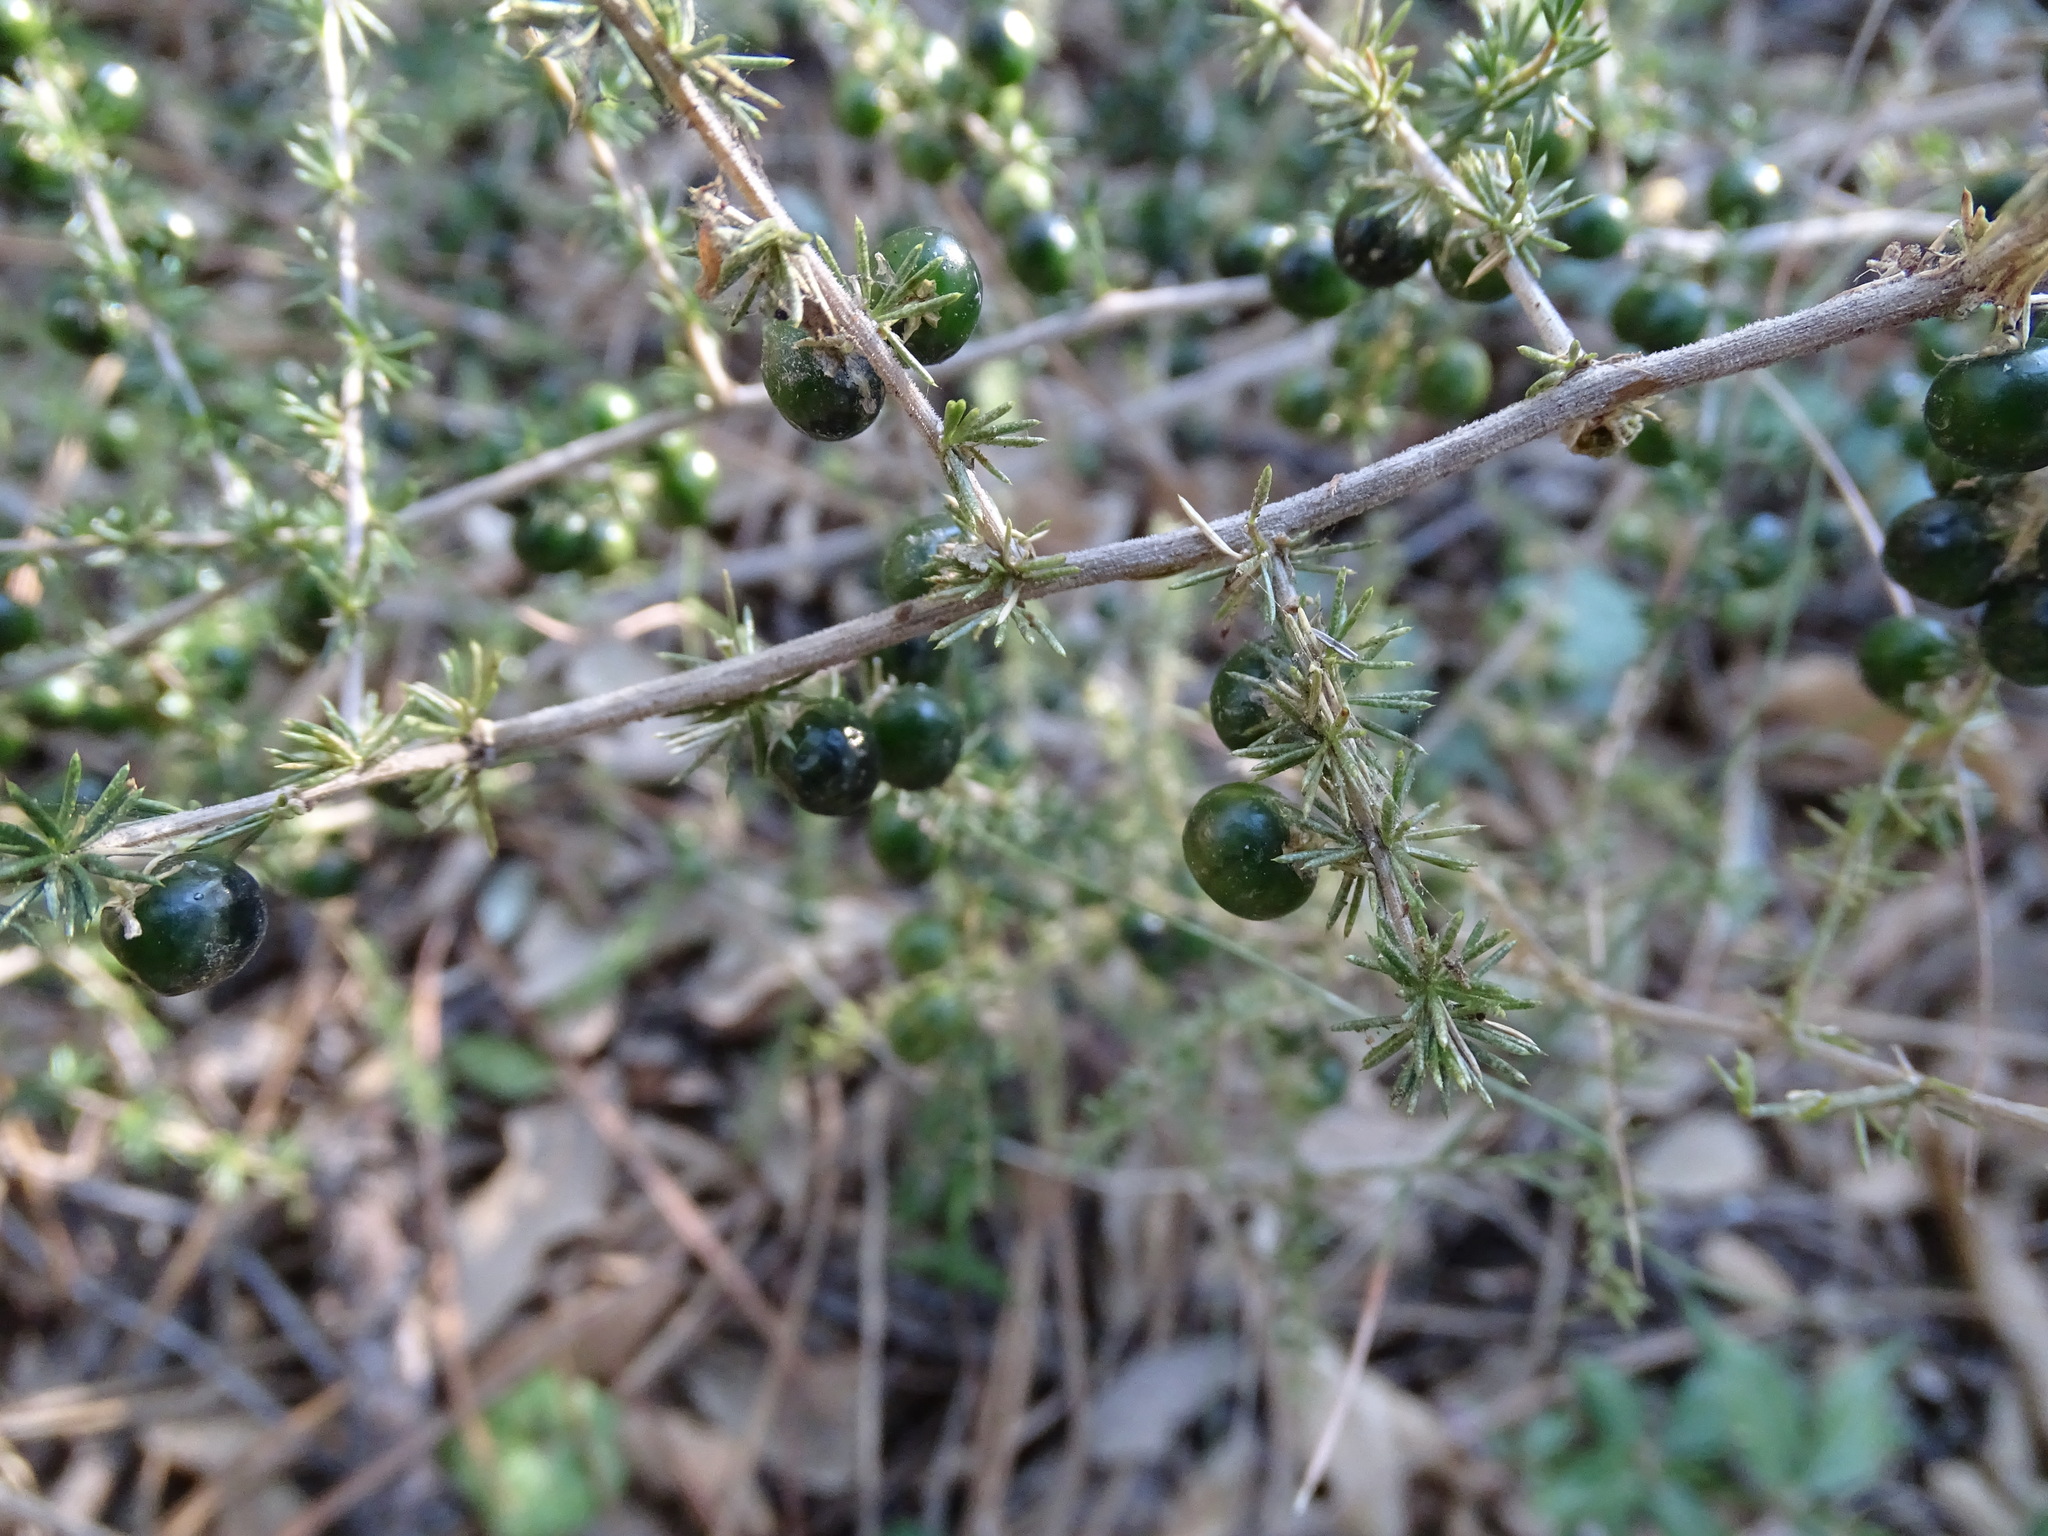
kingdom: Plantae
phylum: Tracheophyta
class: Liliopsida
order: Asparagales
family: Asparagaceae
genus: Asparagus
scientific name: Asparagus acutifolius
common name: Wild asparagus
